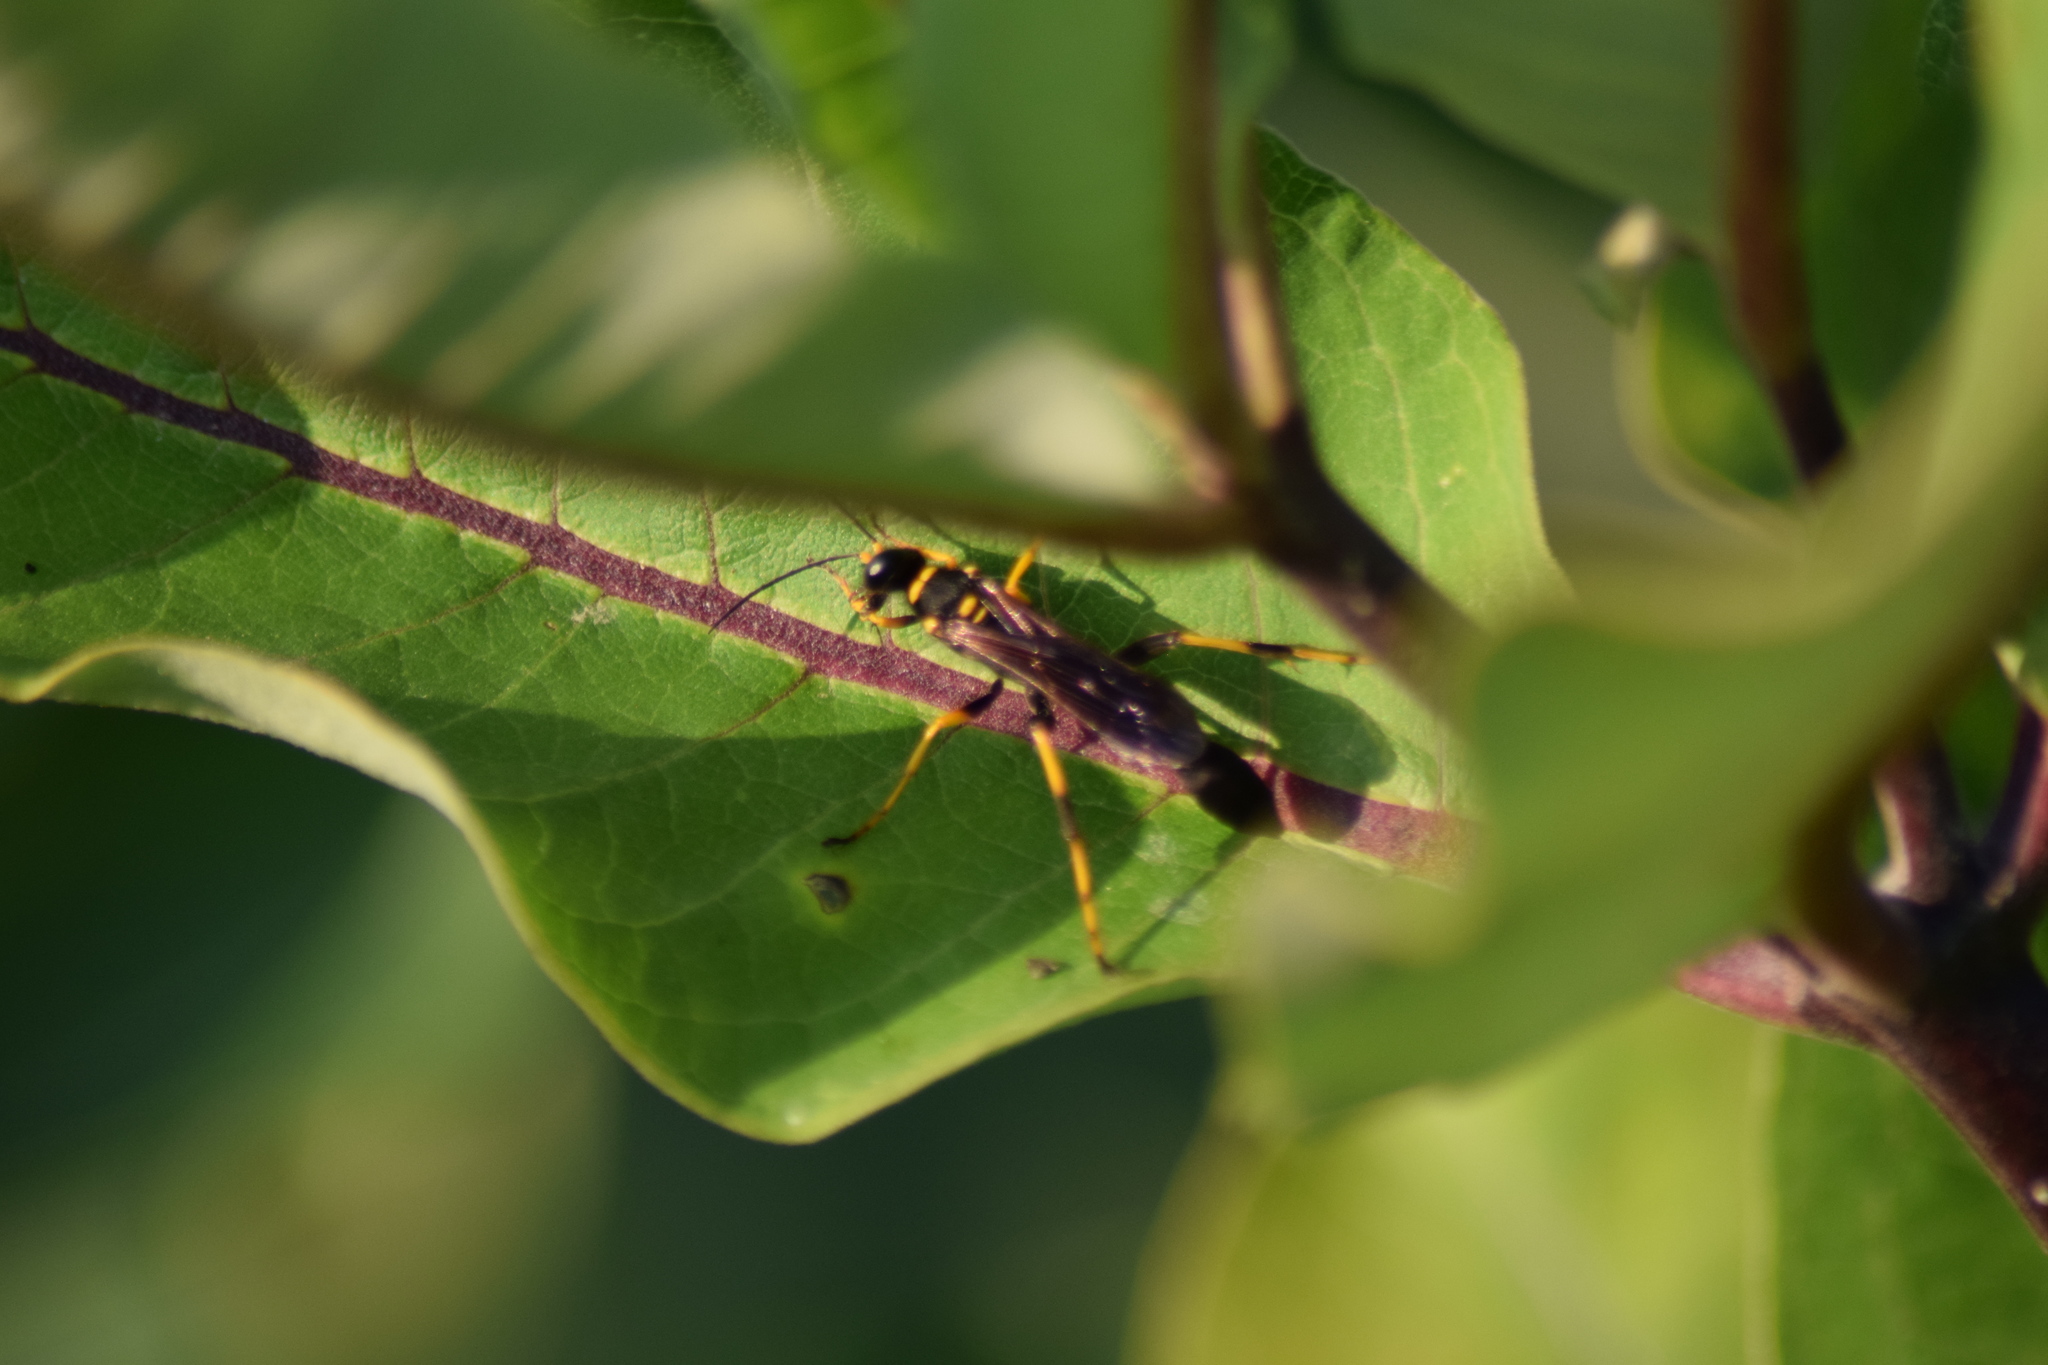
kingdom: Animalia
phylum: Arthropoda
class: Insecta
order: Hymenoptera
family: Sphecidae
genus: Sceliphron
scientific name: Sceliphron caementarium
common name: Mud dauber
